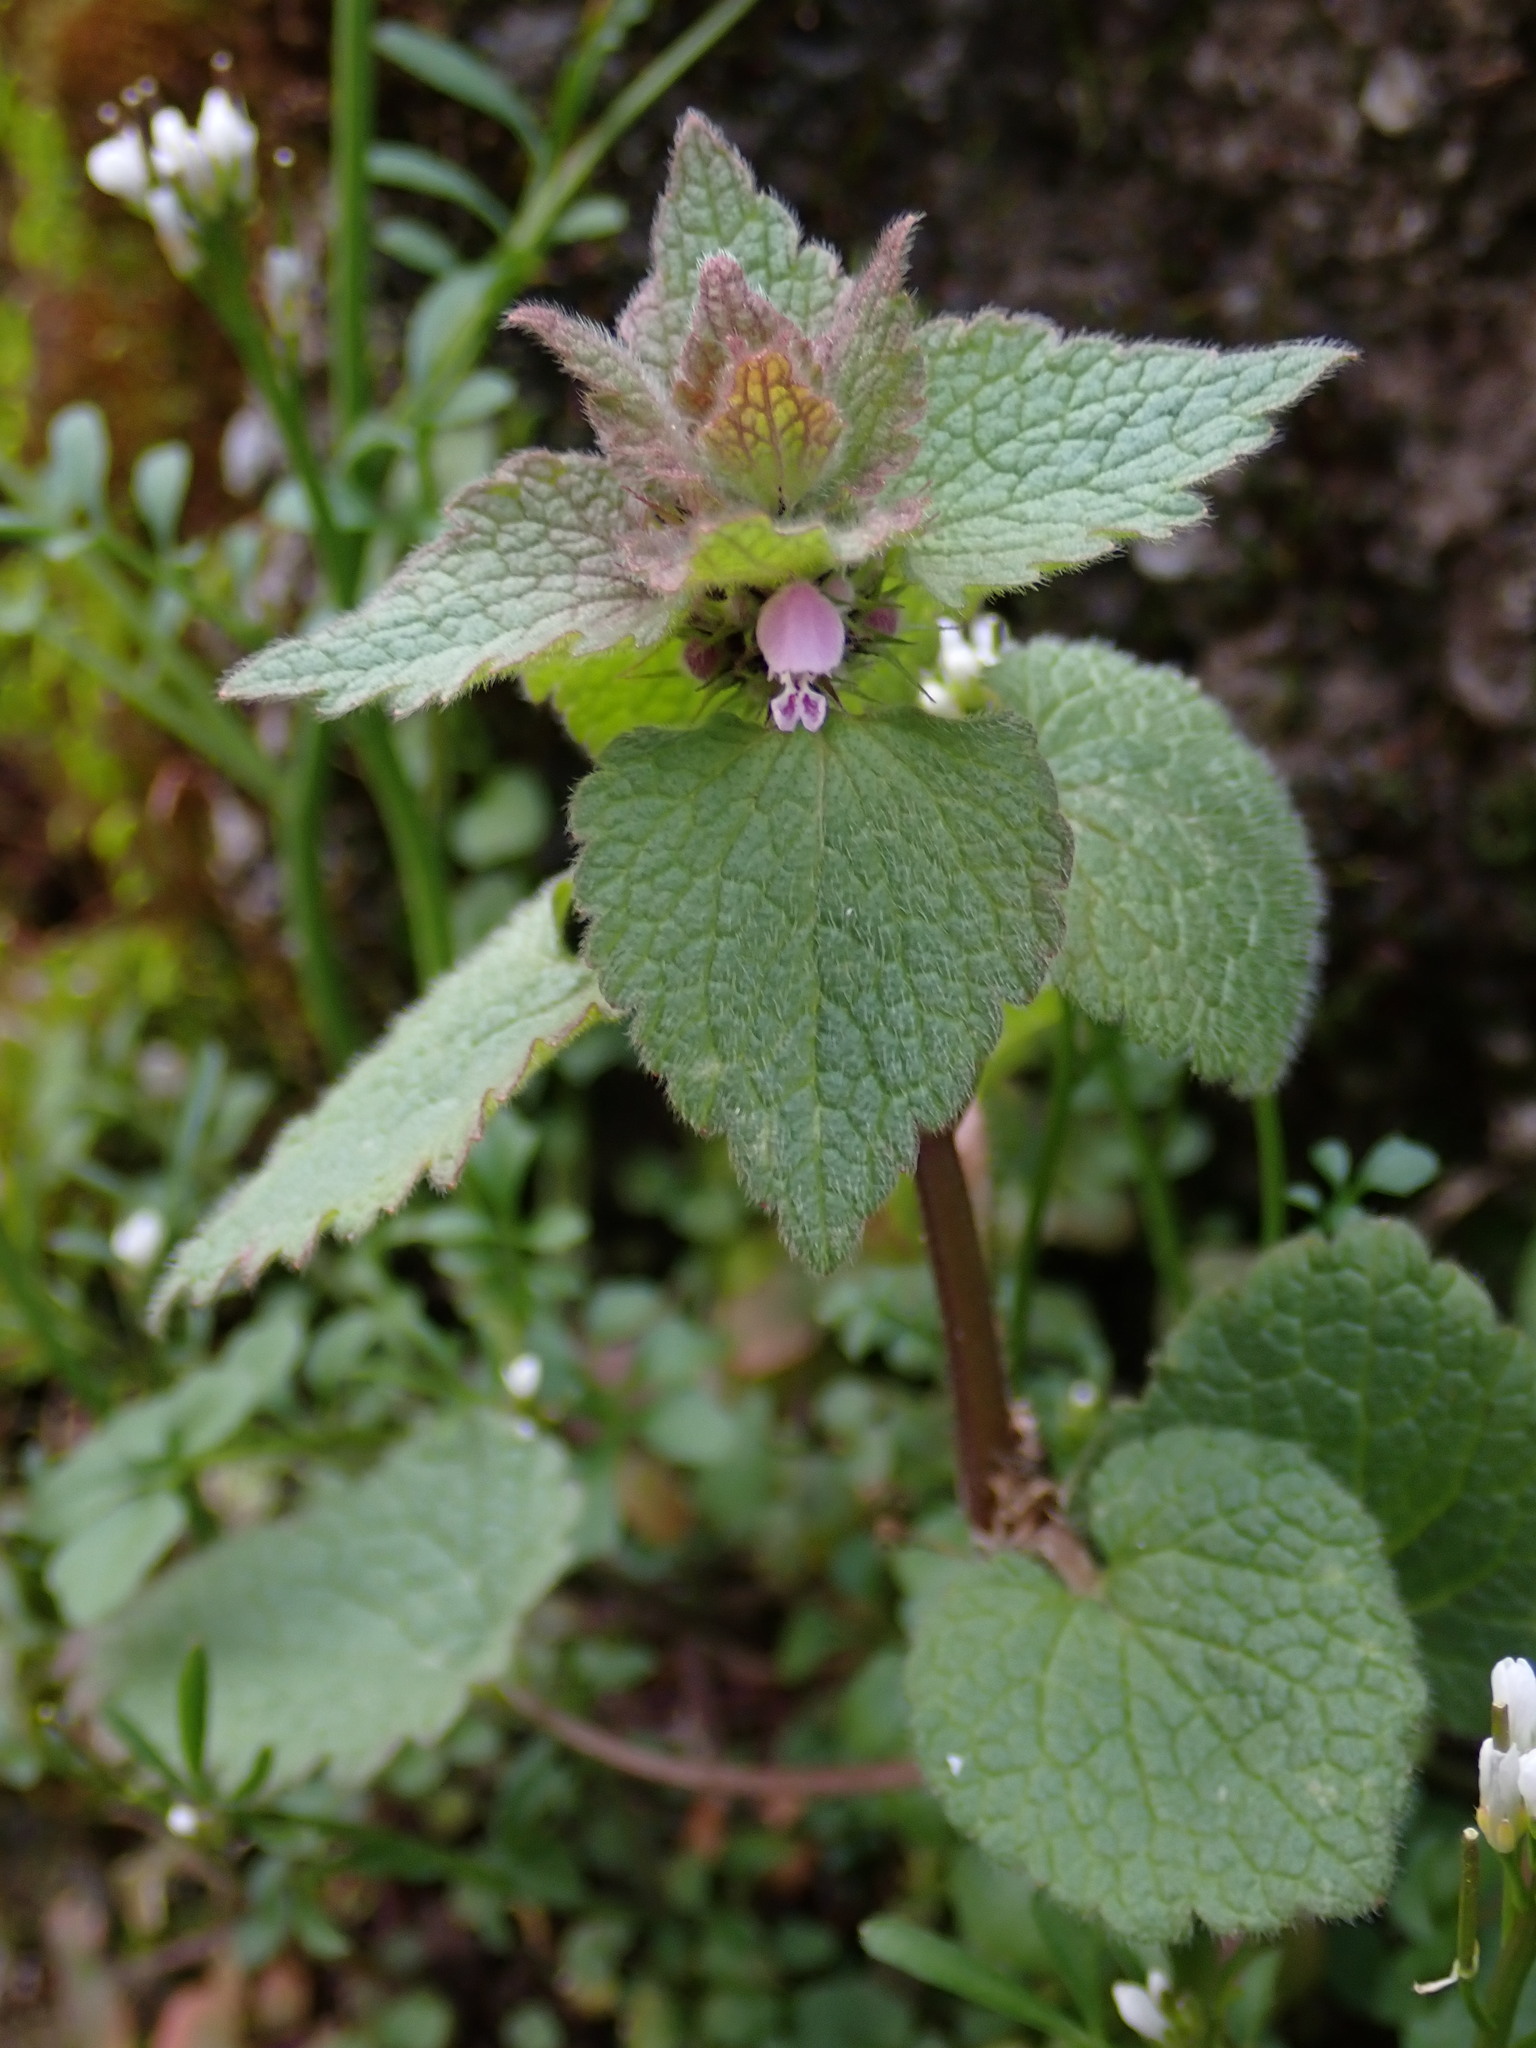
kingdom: Plantae
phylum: Tracheophyta
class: Magnoliopsida
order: Lamiales
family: Lamiaceae
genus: Lamium
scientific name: Lamium purpureum
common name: Red dead-nettle
